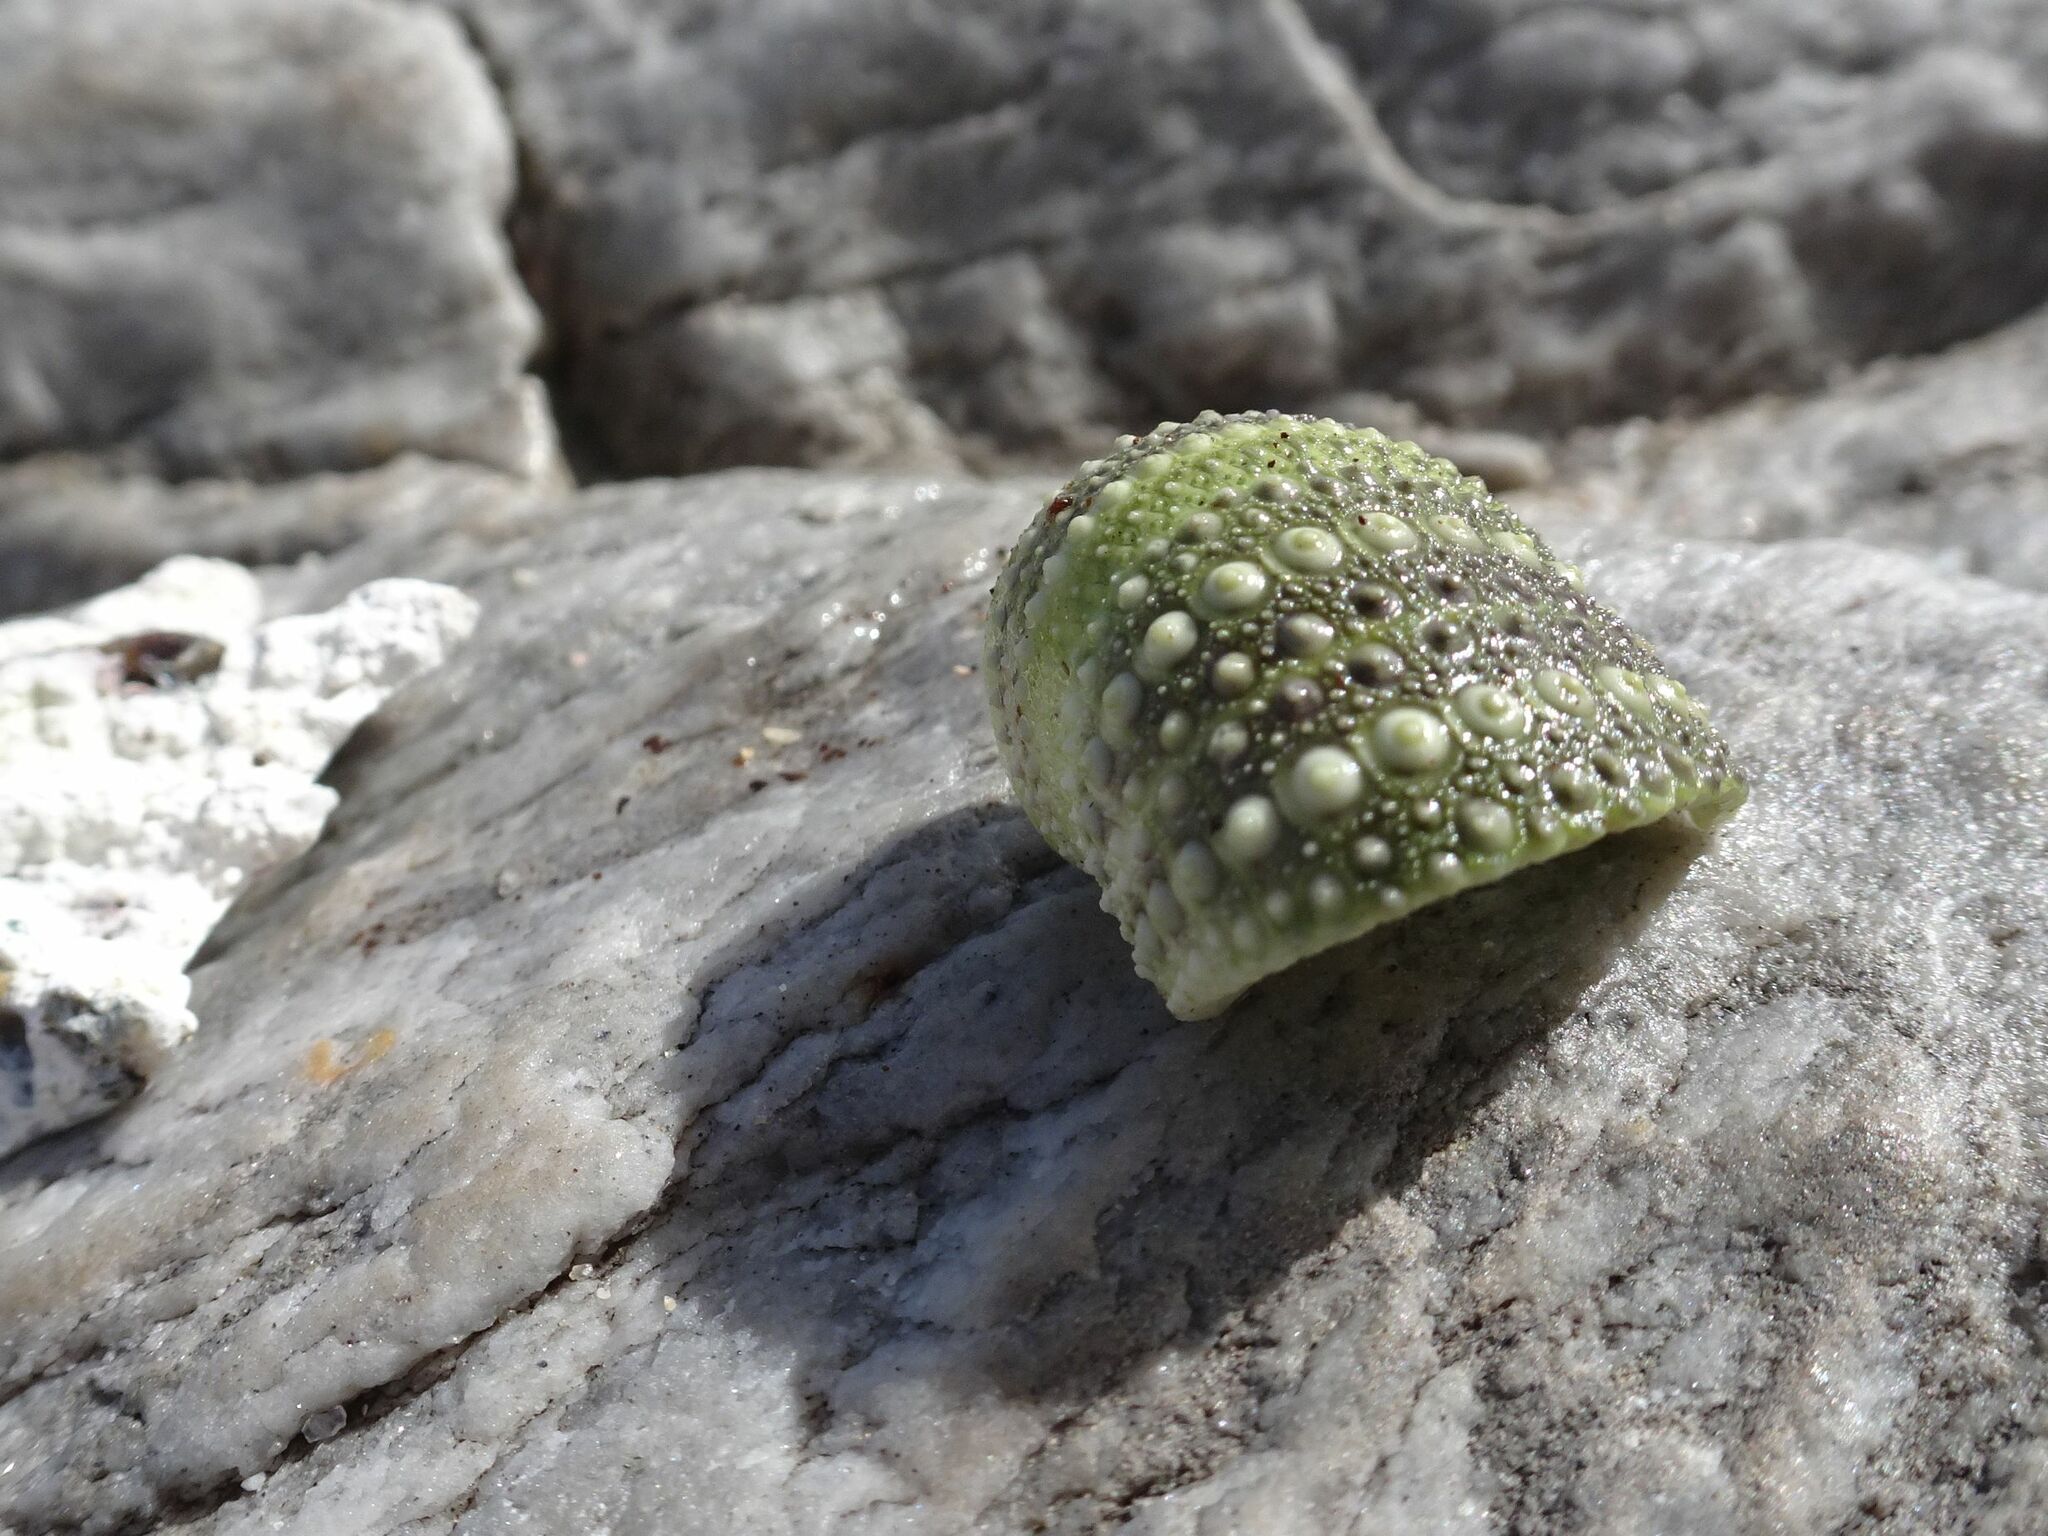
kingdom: Animalia
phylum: Echinodermata
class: Echinoidea
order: Camarodonta
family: Parechinidae
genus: Parechinus
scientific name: Parechinus angulosus
